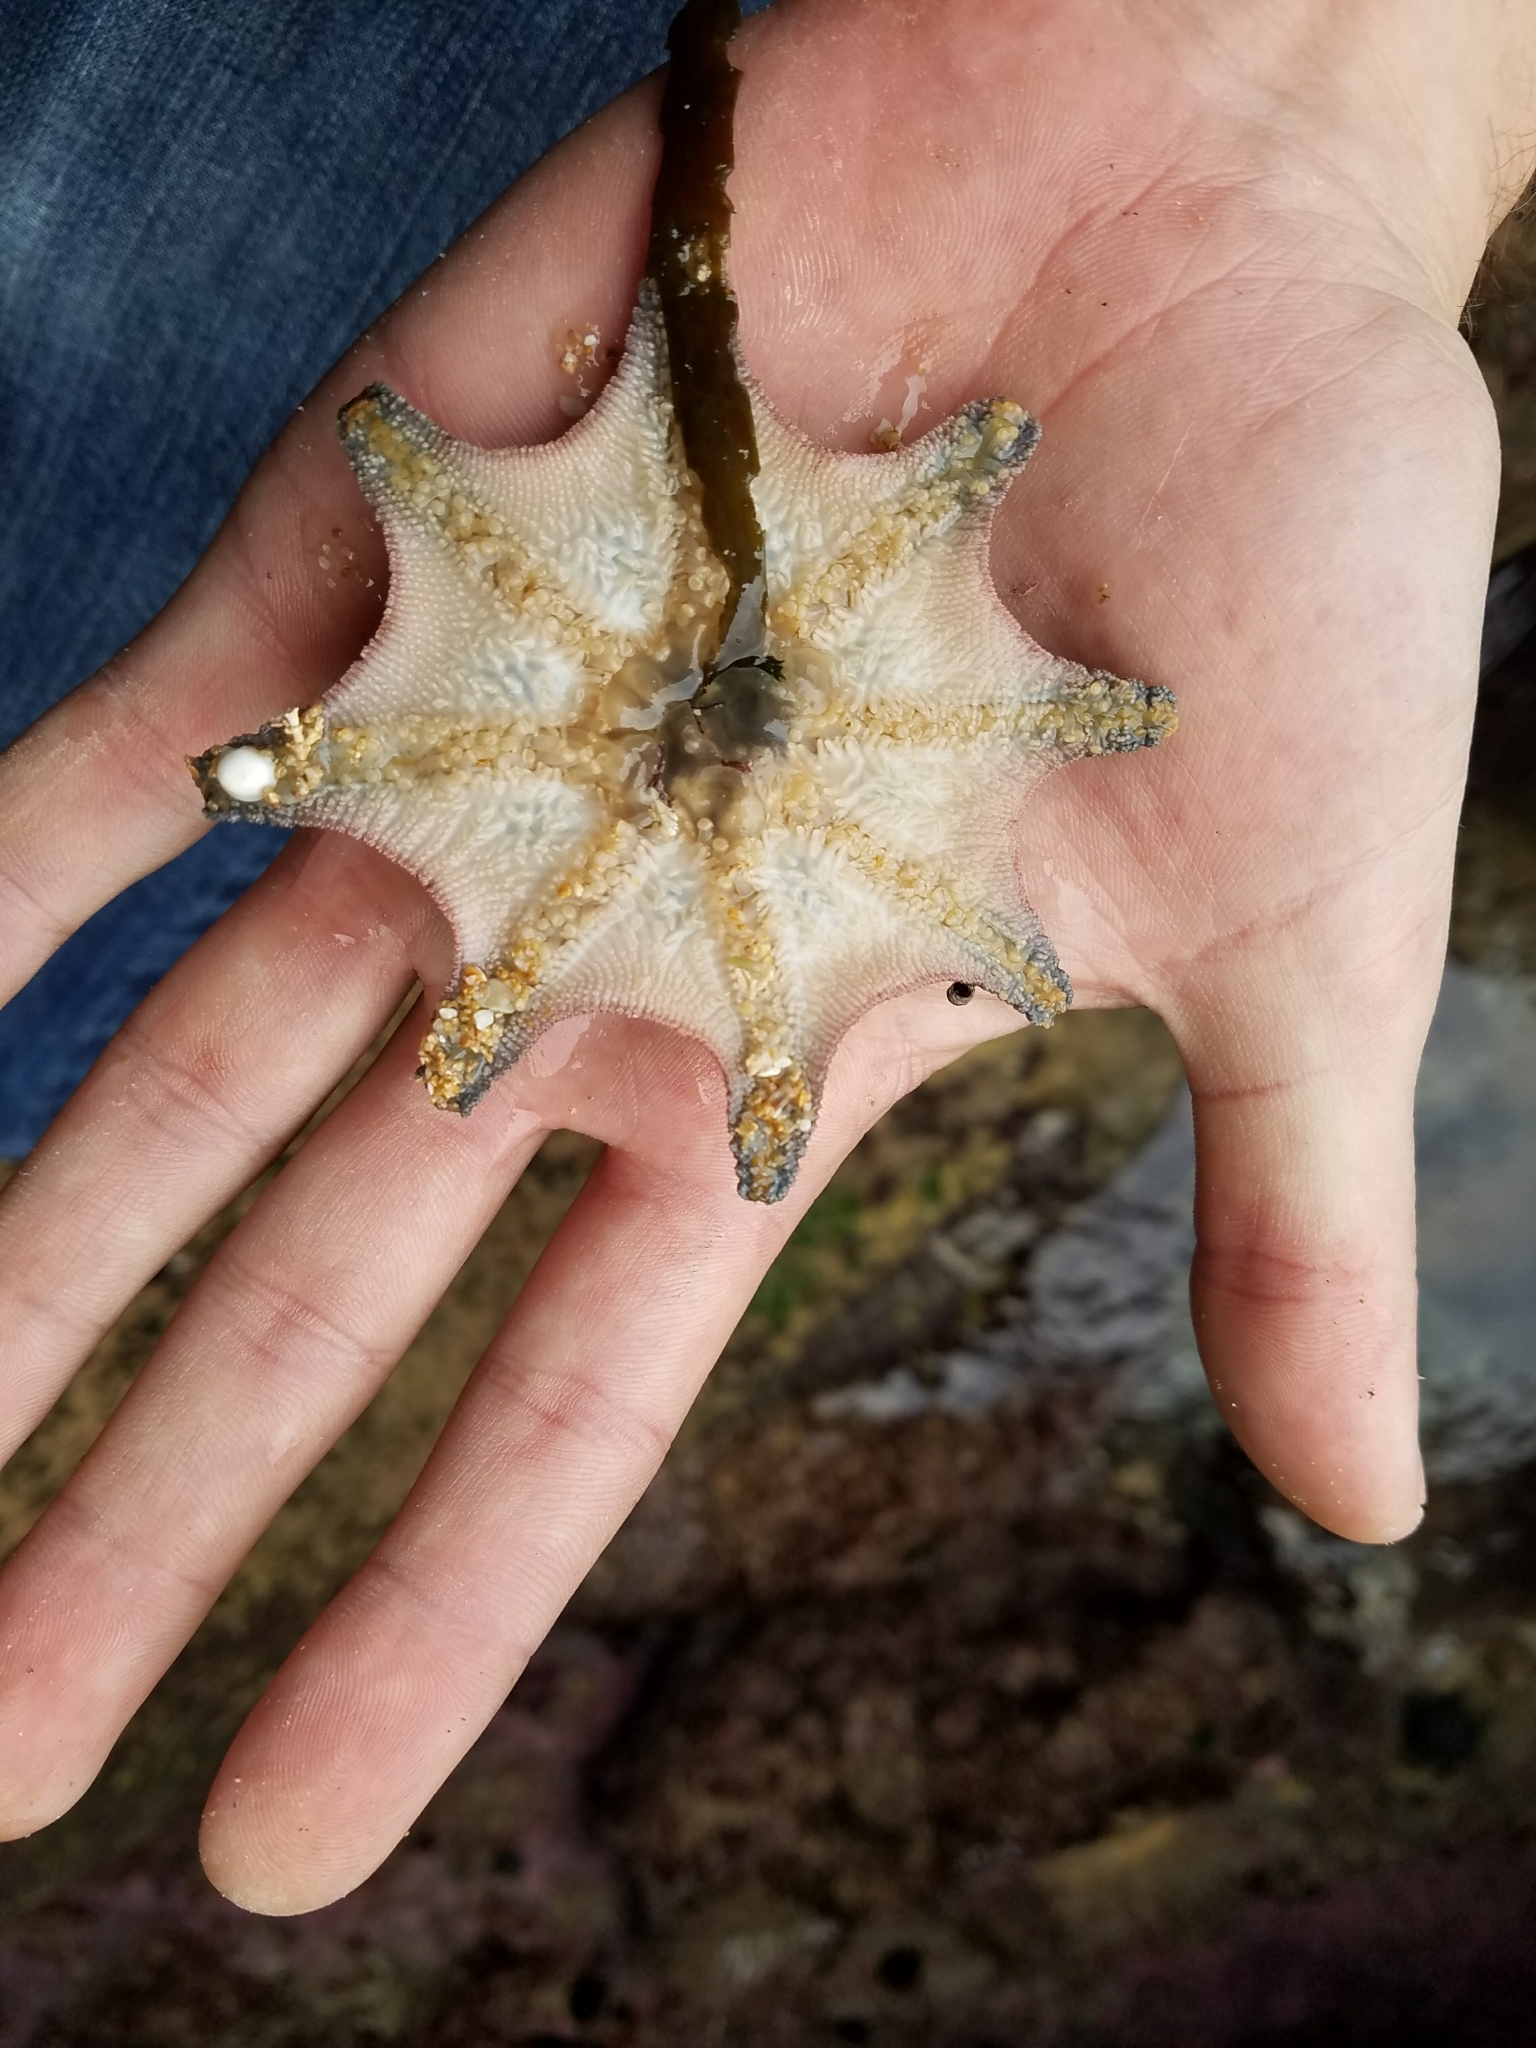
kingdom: Animalia
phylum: Echinodermata
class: Asteroidea
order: Valvatida
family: Asterinidae
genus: Meridiastra
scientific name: Meridiastra calcar
